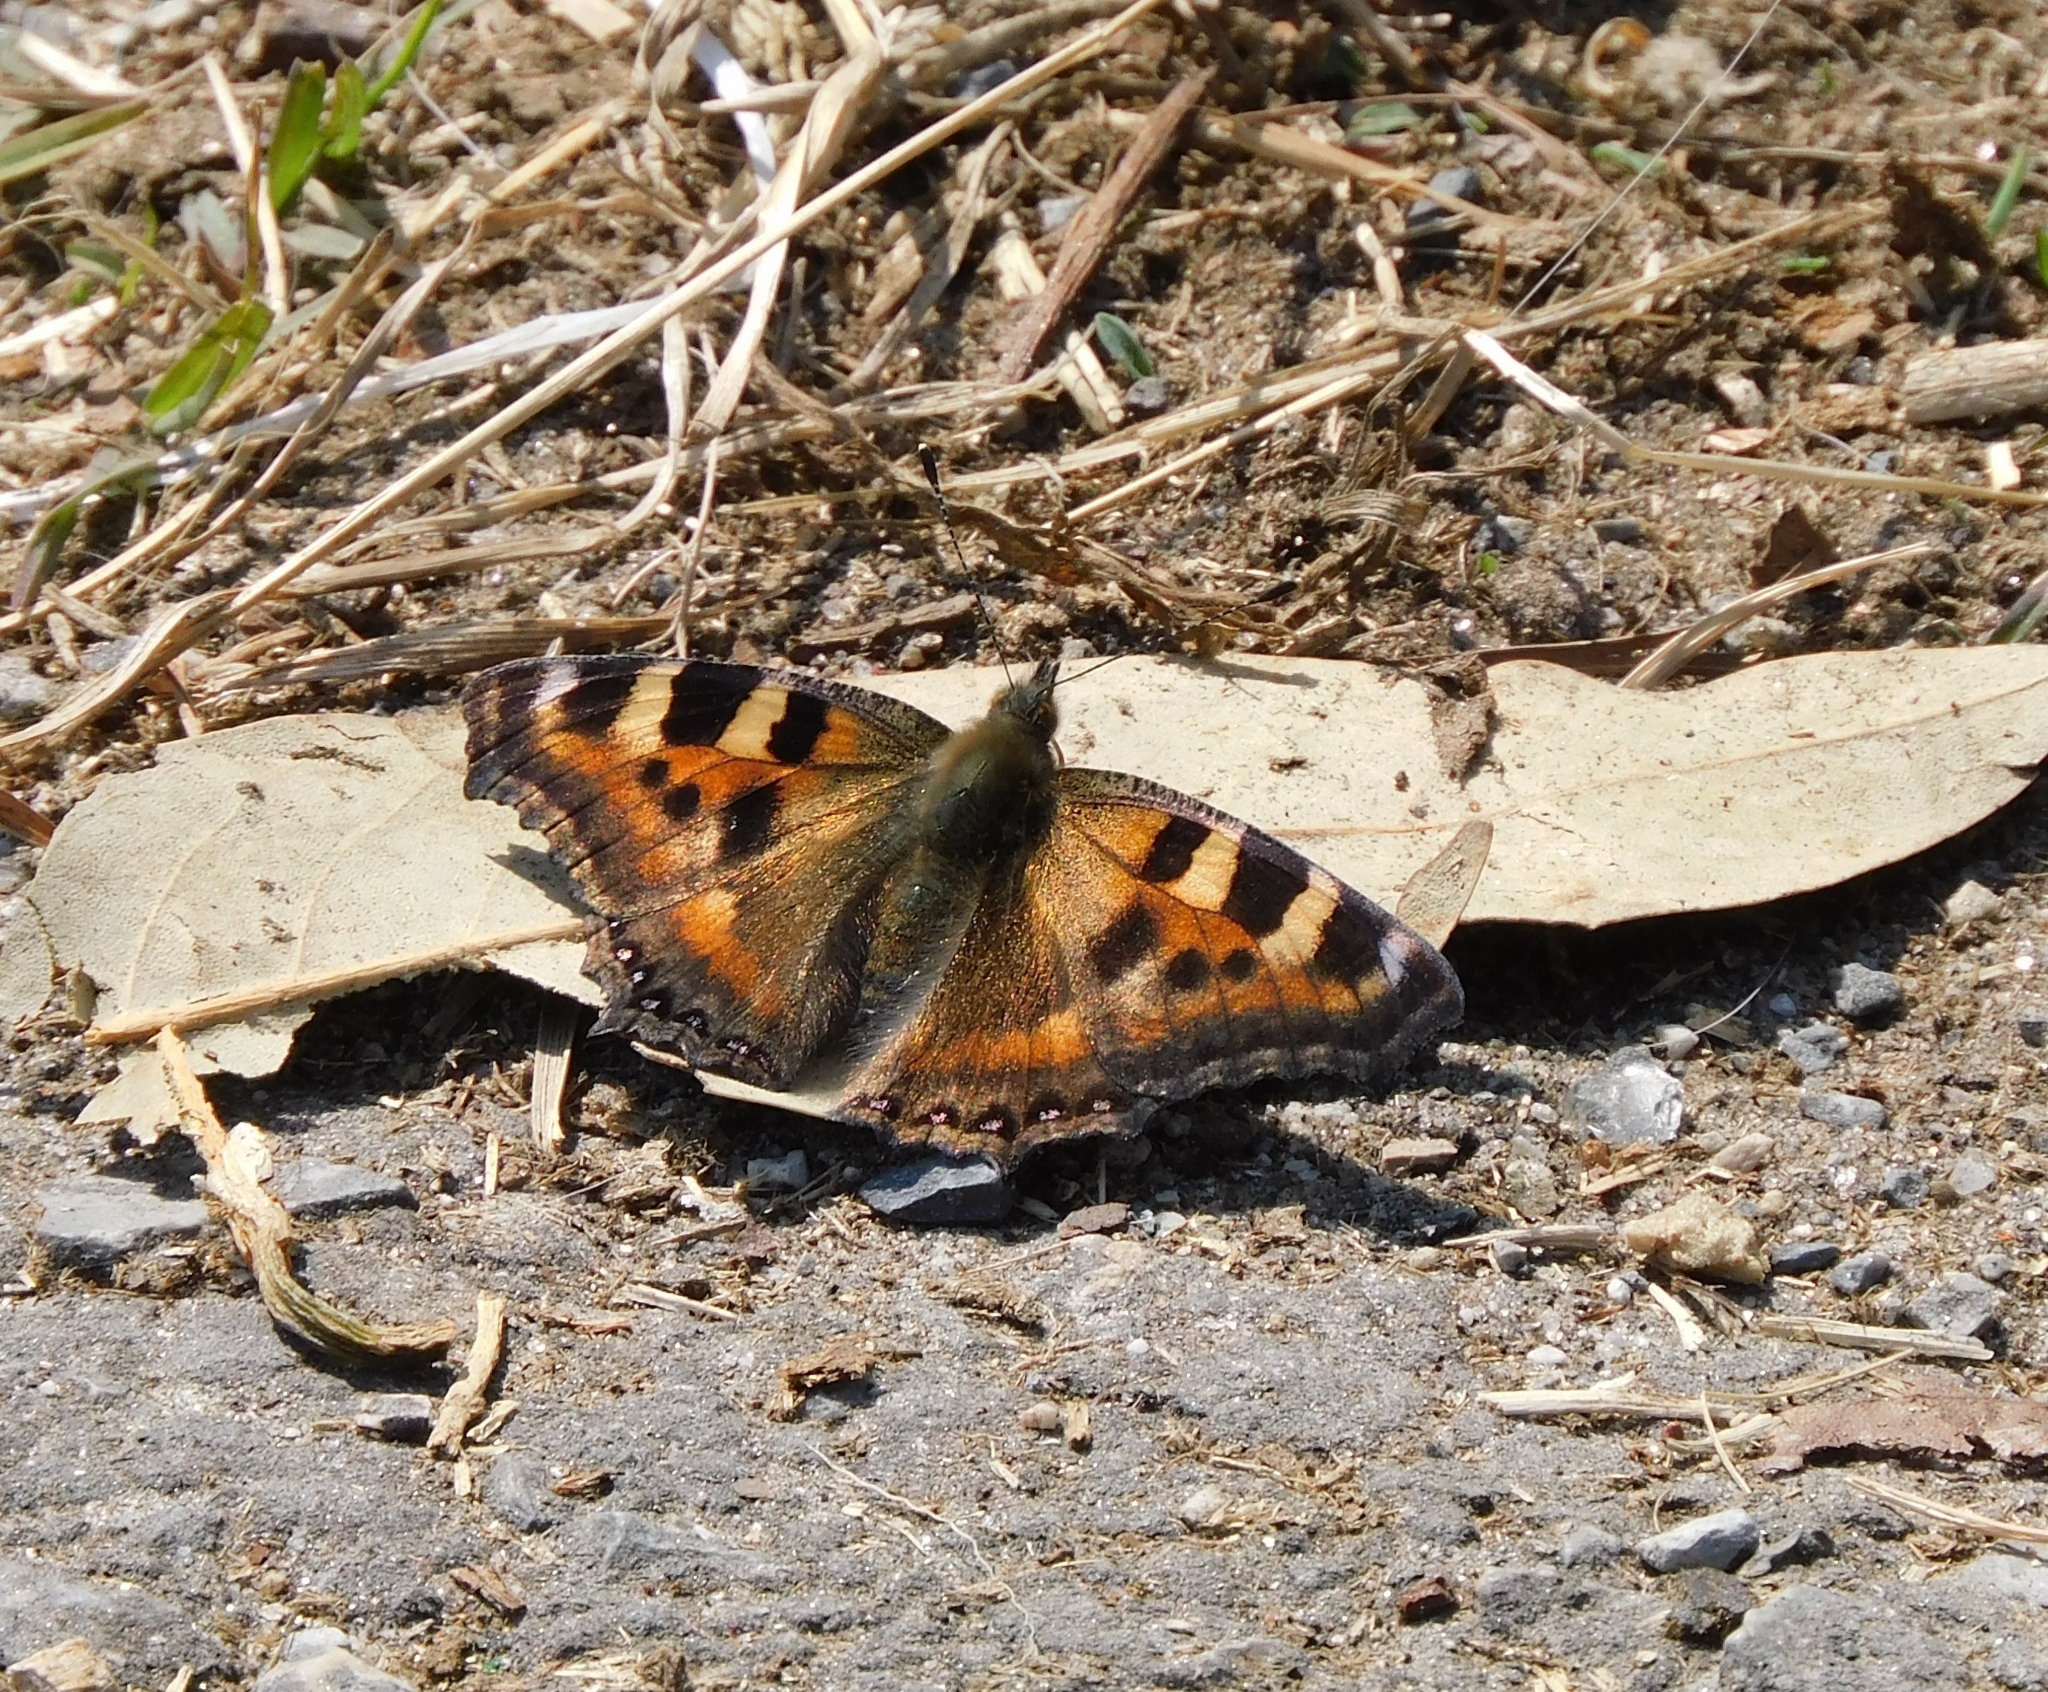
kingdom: Animalia
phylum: Arthropoda
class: Insecta
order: Lepidoptera
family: Nymphalidae
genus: Aglais
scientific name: Aglais caschmirensis
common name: Indian tortoiseshell
